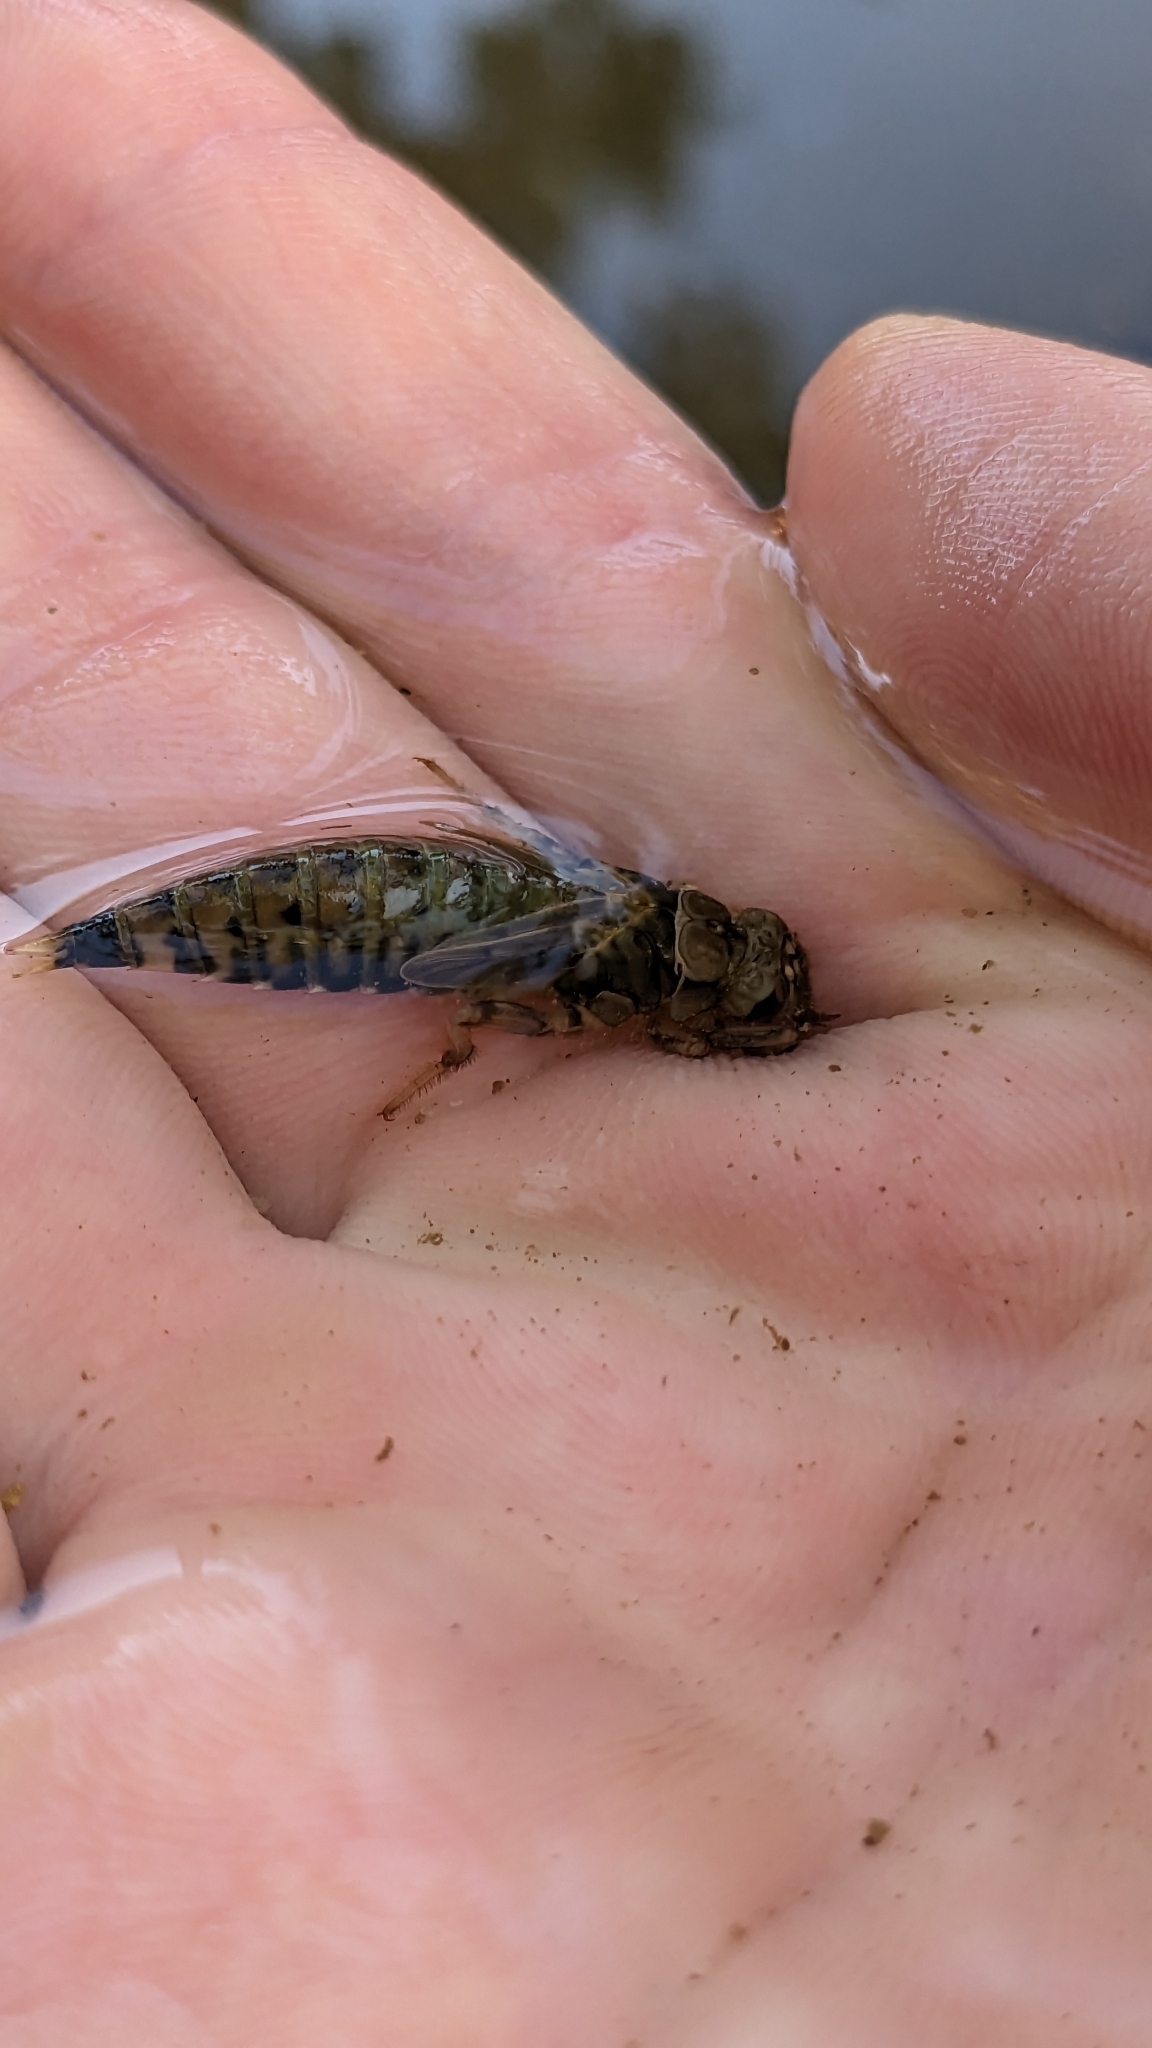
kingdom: Animalia
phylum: Arthropoda
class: Insecta
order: Odonata
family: Gomphidae
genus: Progomphus
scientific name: Progomphus obscurus
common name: Common sanddragon
